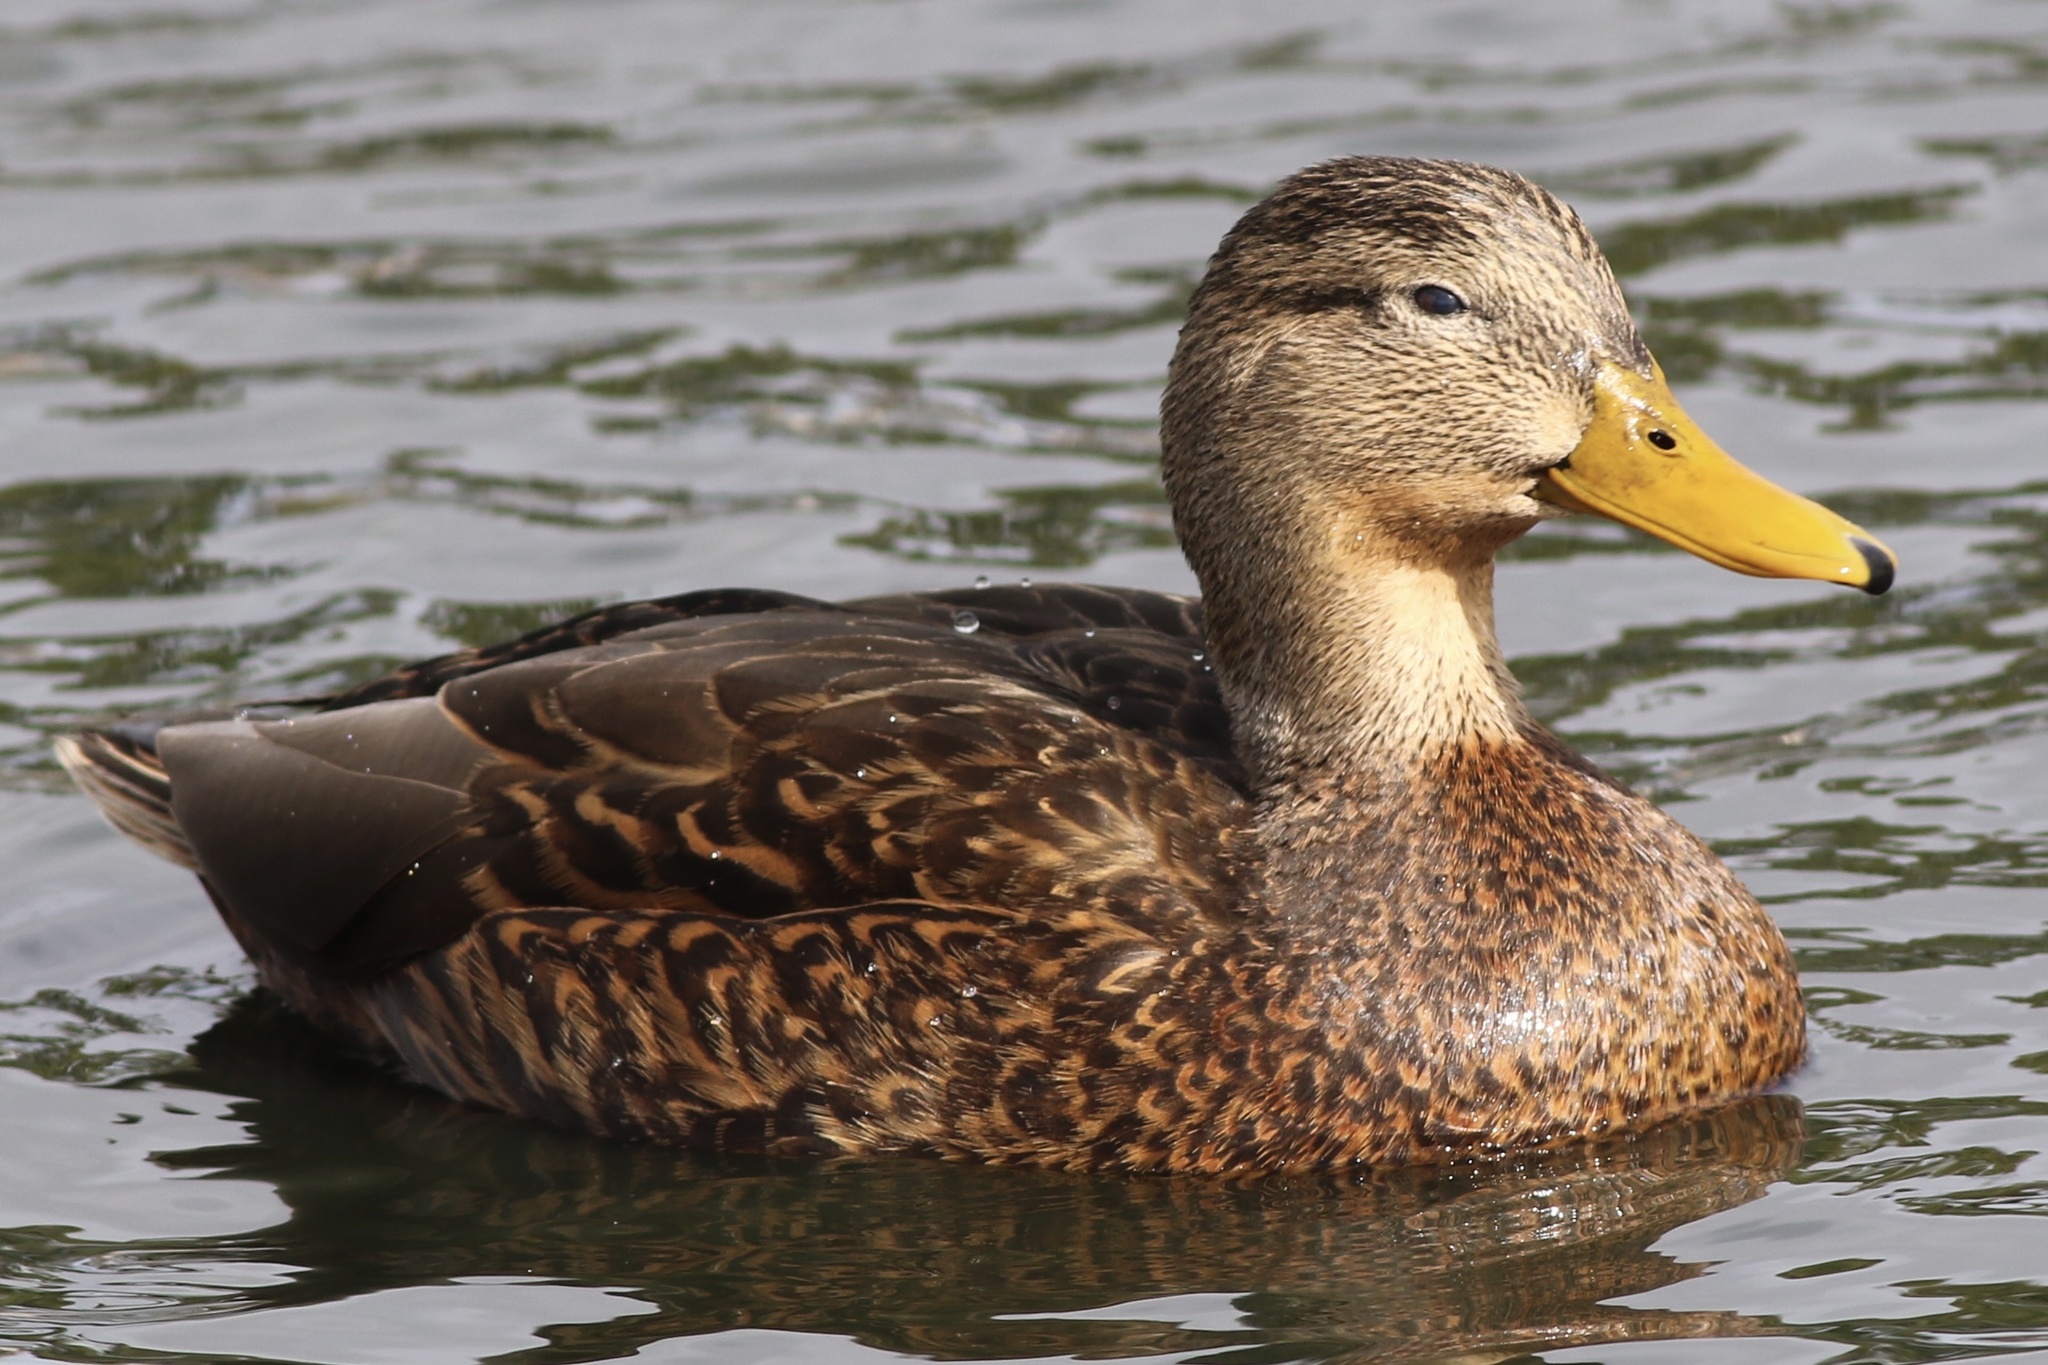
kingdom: Animalia
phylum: Chordata
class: Aves
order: Anseriformes
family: Anatidae
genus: Anas
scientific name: Anas diazi
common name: Mexican duck
